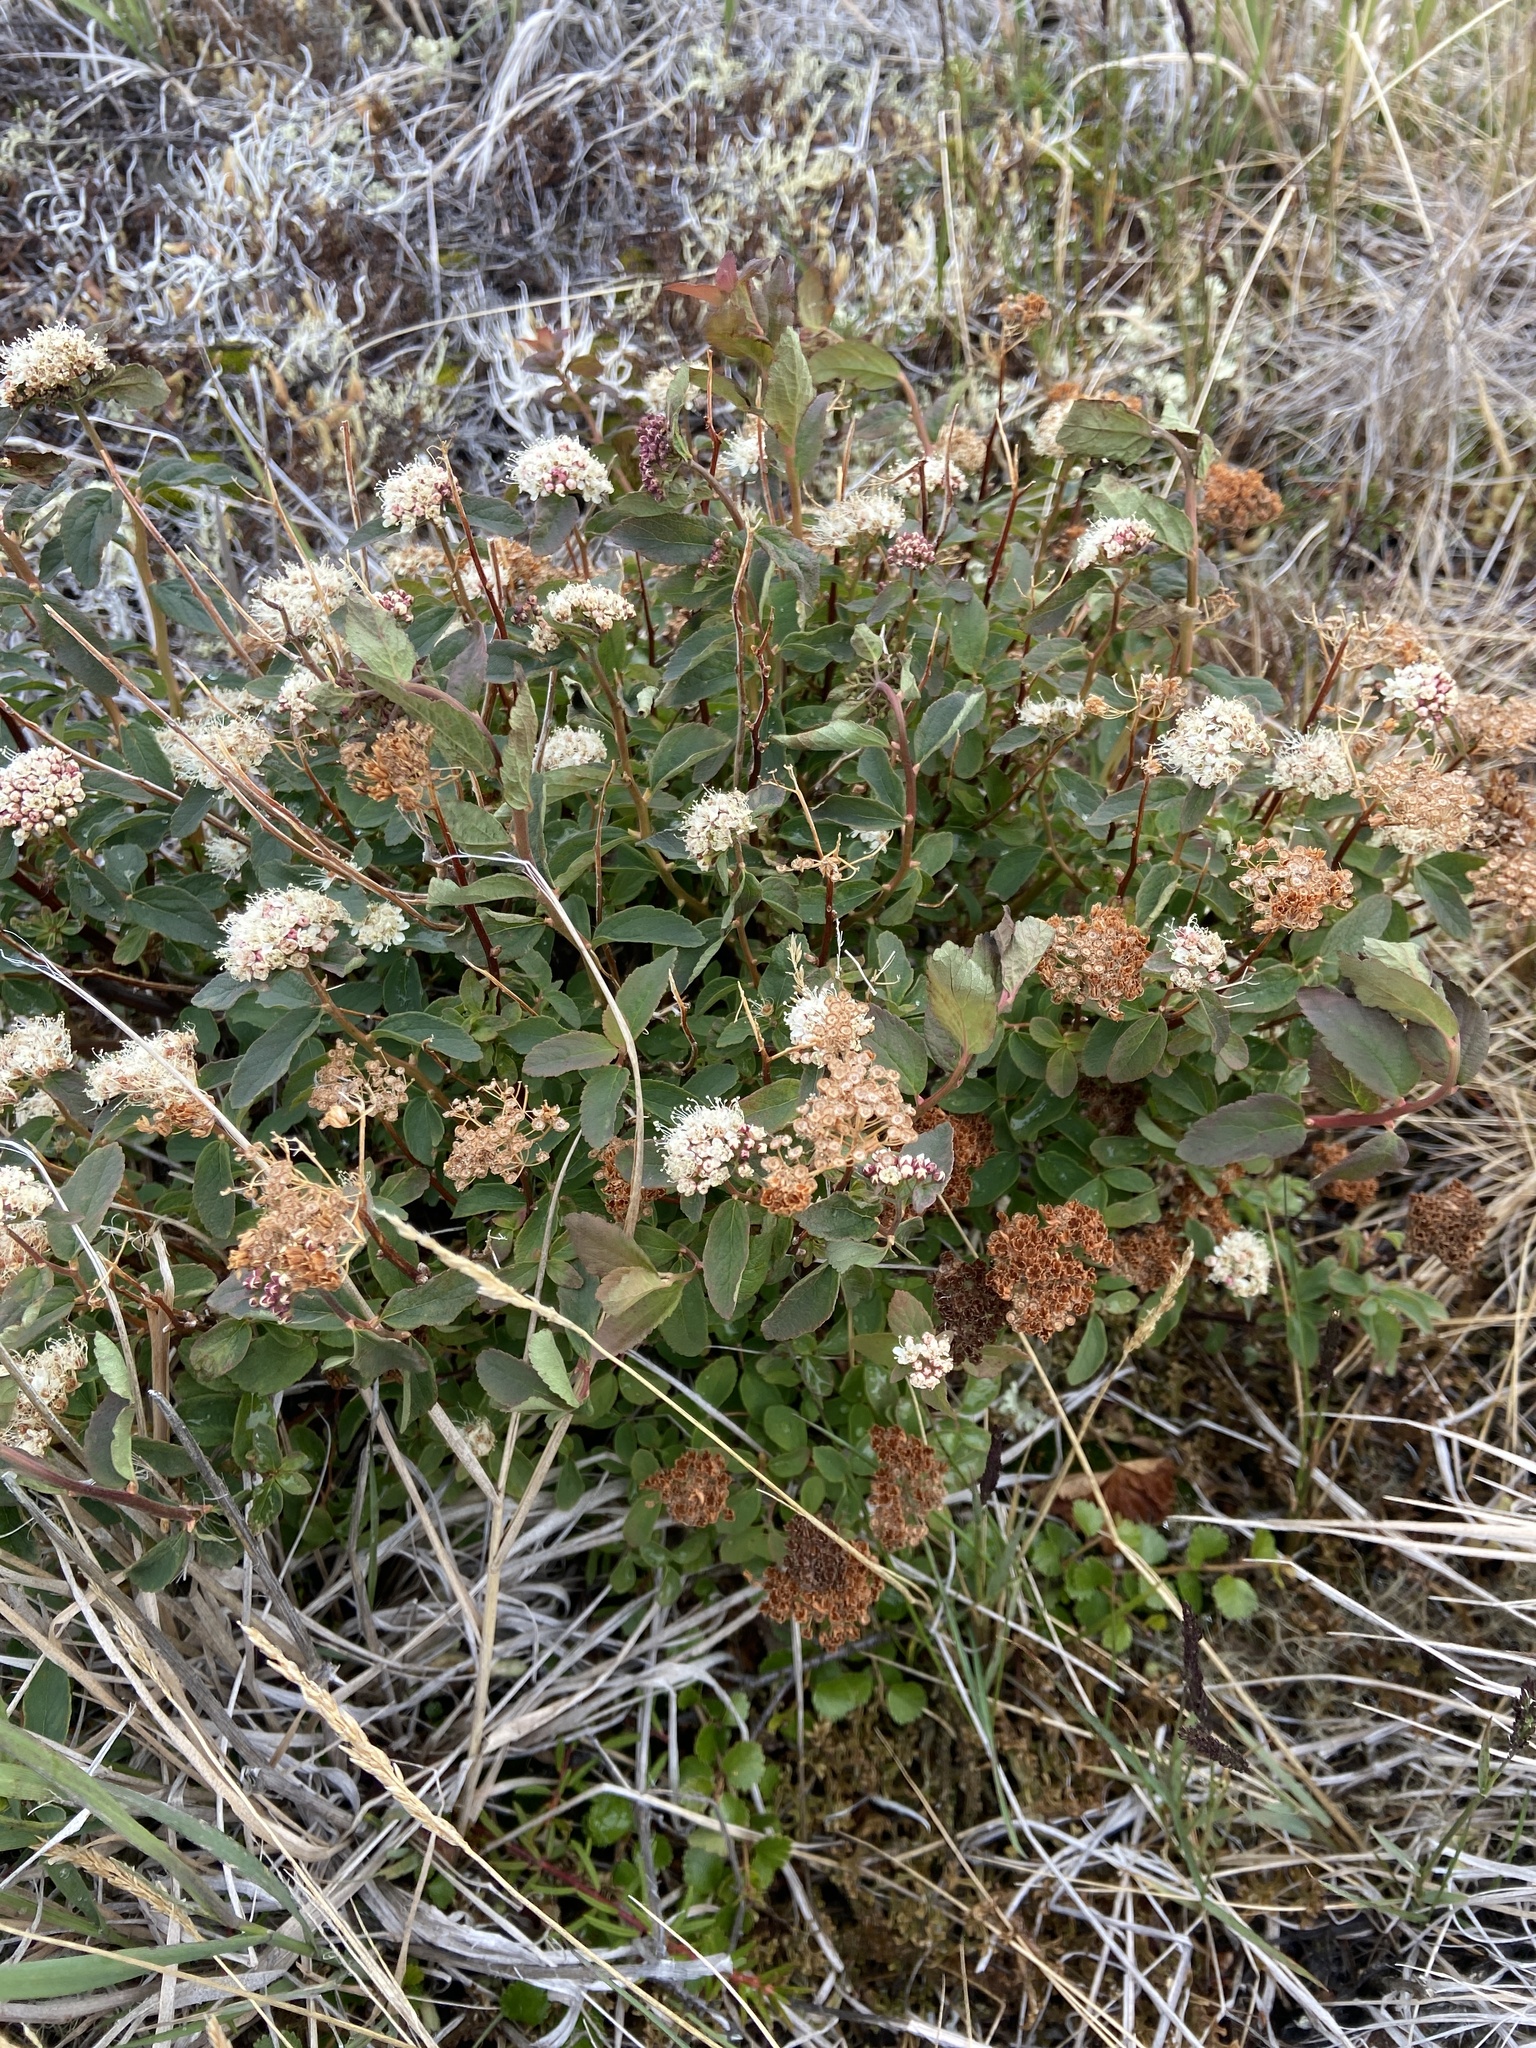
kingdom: Plantae
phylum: Tracheophyta
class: Magnoliopsida
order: Rosales
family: Rosaceae
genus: Spiraea
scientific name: Spiraea stevenii
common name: Steven's meadowsweet
